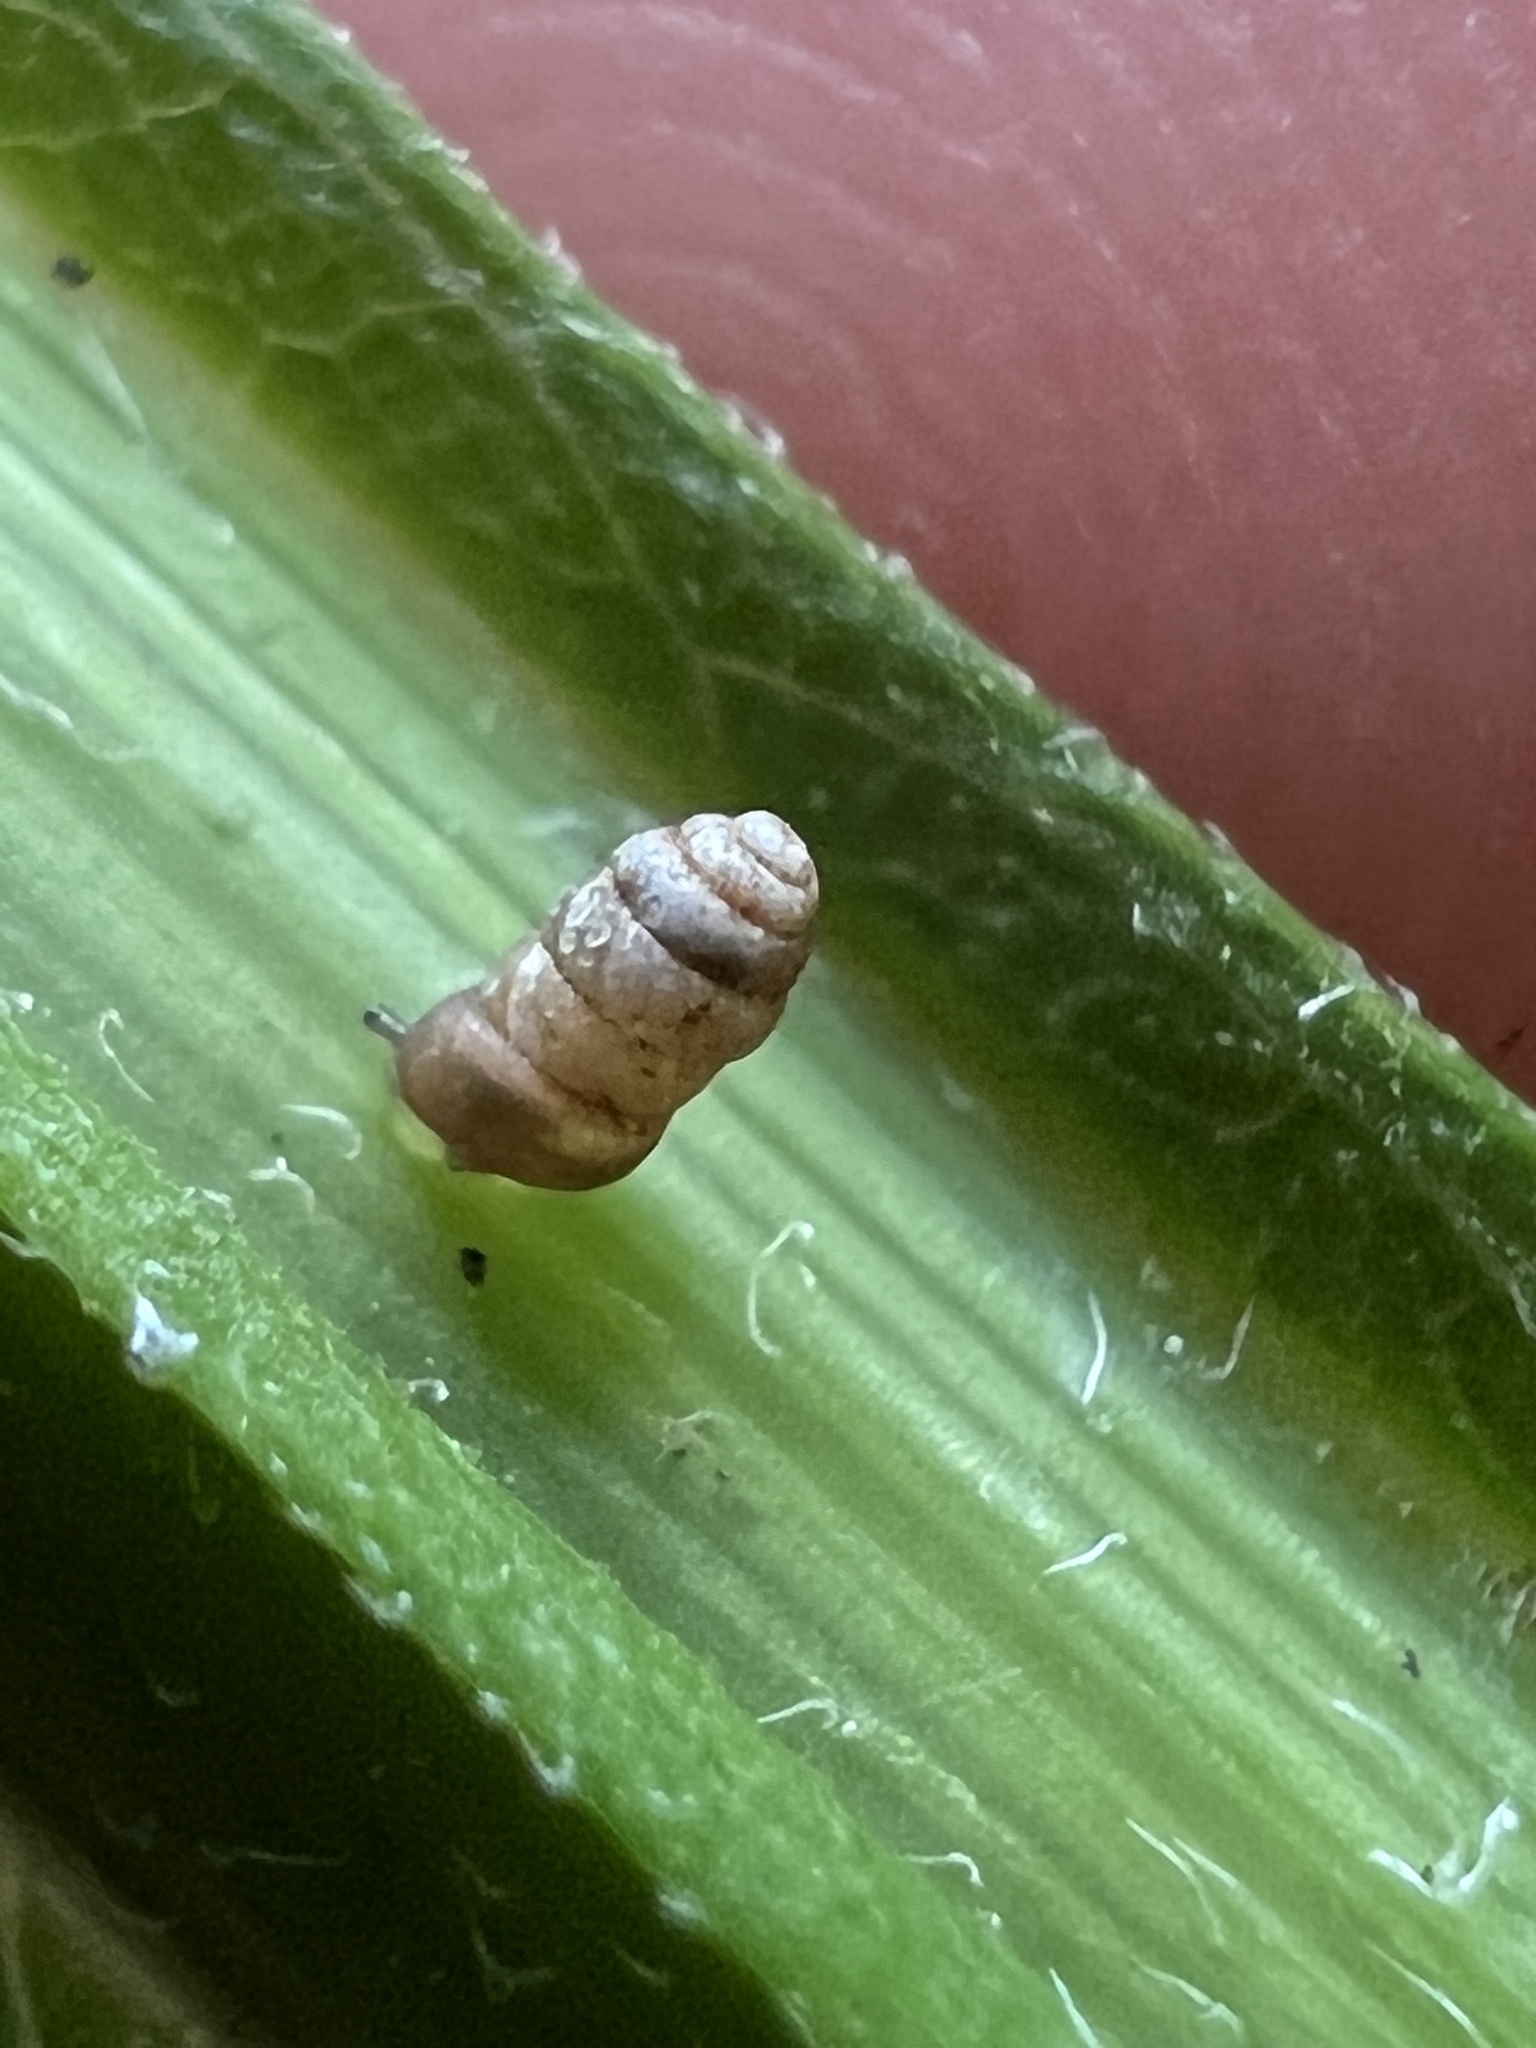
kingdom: Animalia
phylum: Mollusca
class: Gastropoda
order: Stylommatophora
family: Truncatellinidae
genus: Columella
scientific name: Columella simplex
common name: High-spire column
